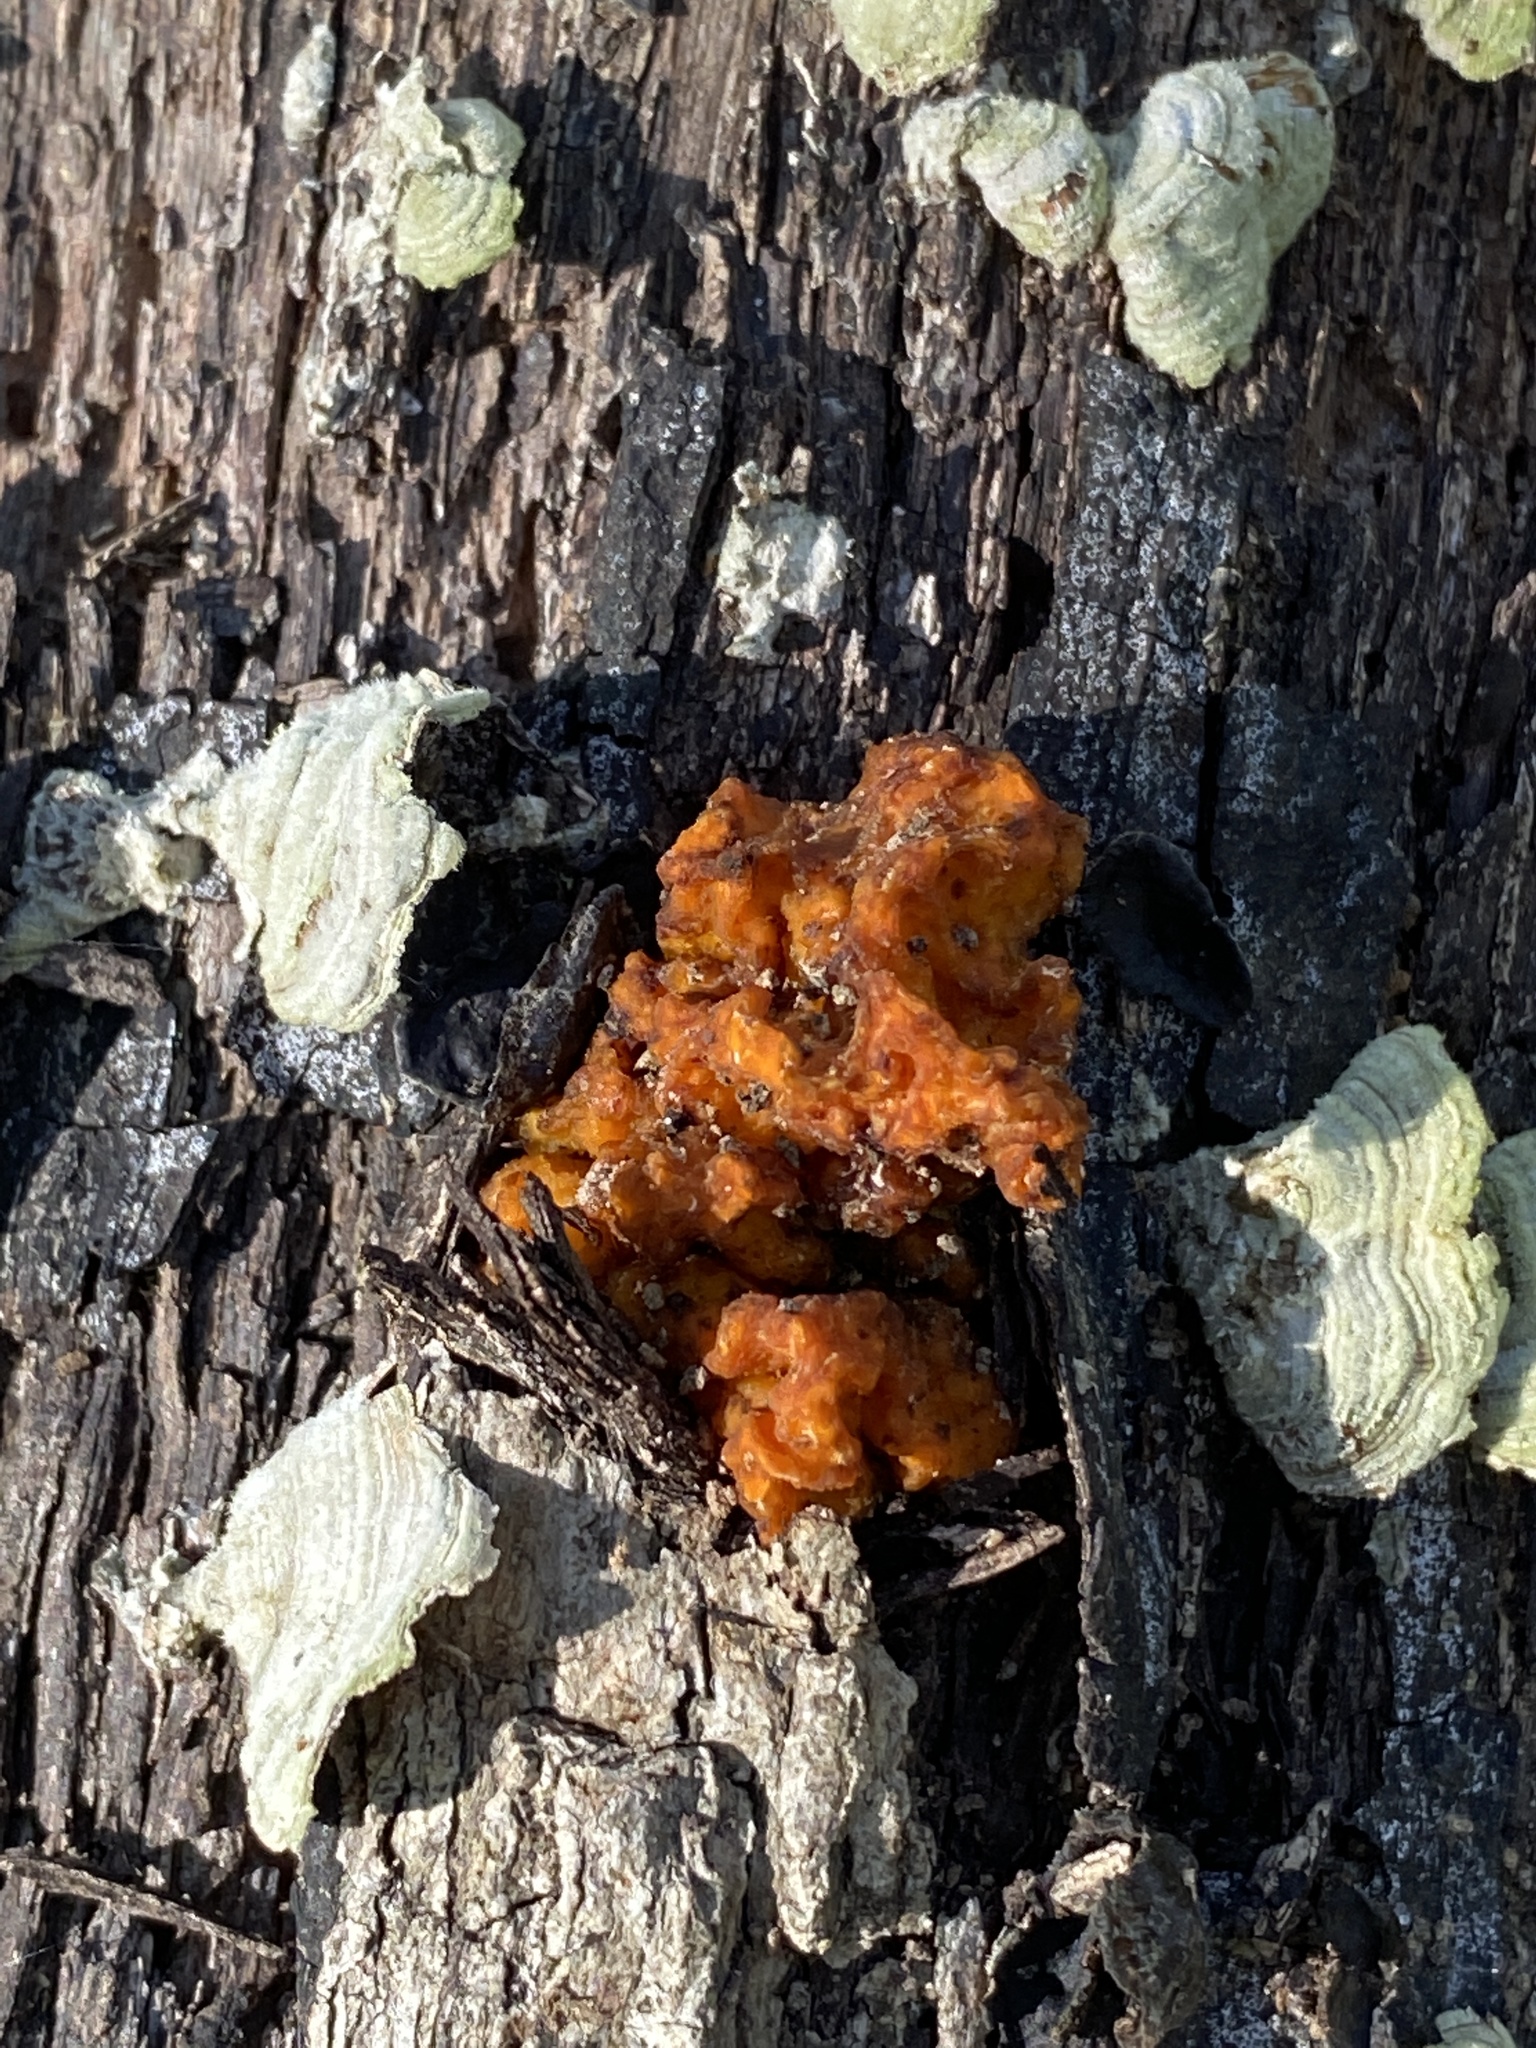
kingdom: Fungi
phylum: Basidiomycota
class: Tremellomycetes
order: Tremellales
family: Naemateliaceae
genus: Naematelia
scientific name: Naematelia aurantia
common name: Golden ear
